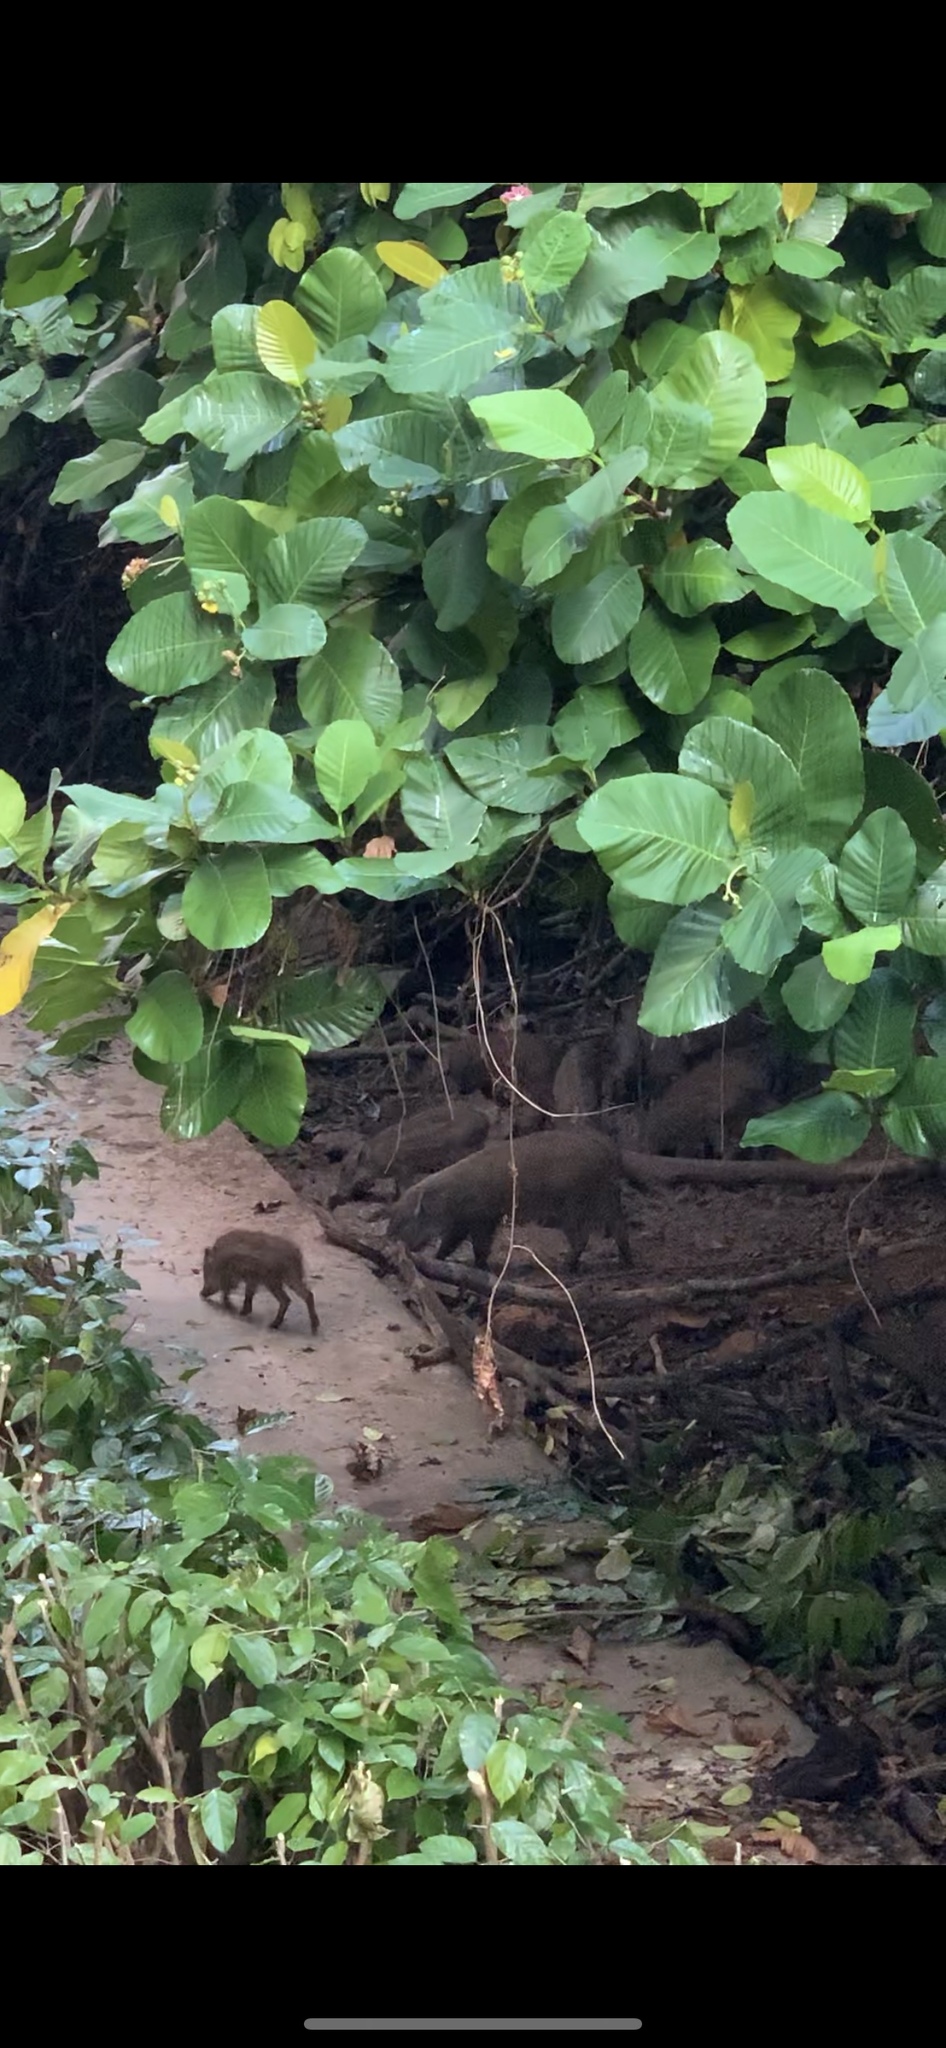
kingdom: Animalia
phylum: Chordata
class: Mammalia
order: Artiodactyla
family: Suidae
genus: Sus
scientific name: Sus scrofa
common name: Wild boar
